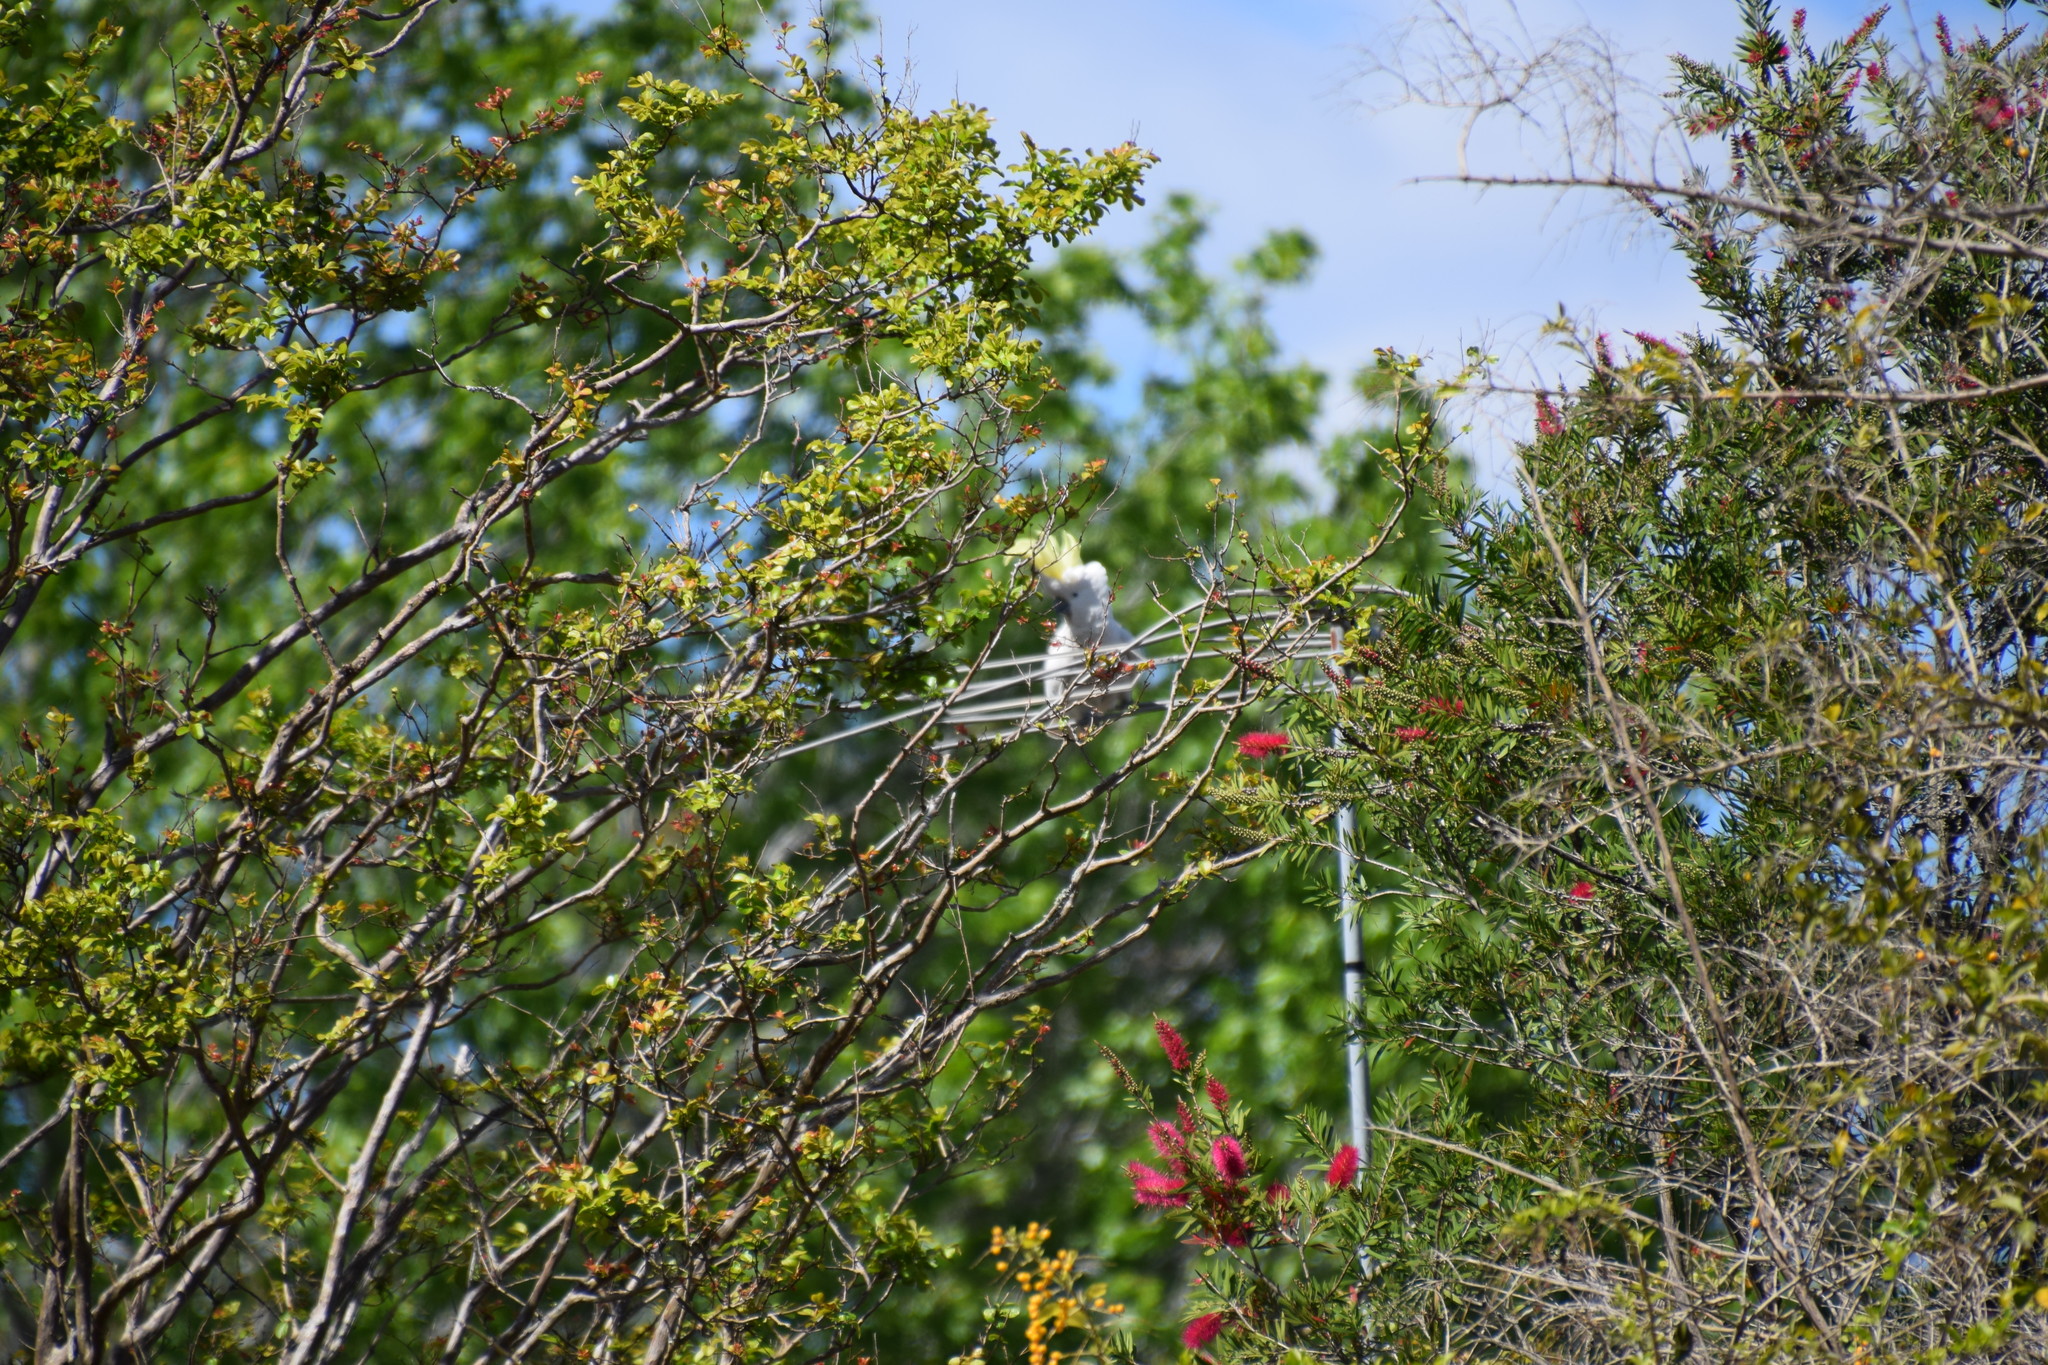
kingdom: Animalia
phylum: Chordata
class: Aves
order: Psittaciformes
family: Psittacidae
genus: Cacatua
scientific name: Cacatua galerita
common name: Sulphur-crested cockatoo
